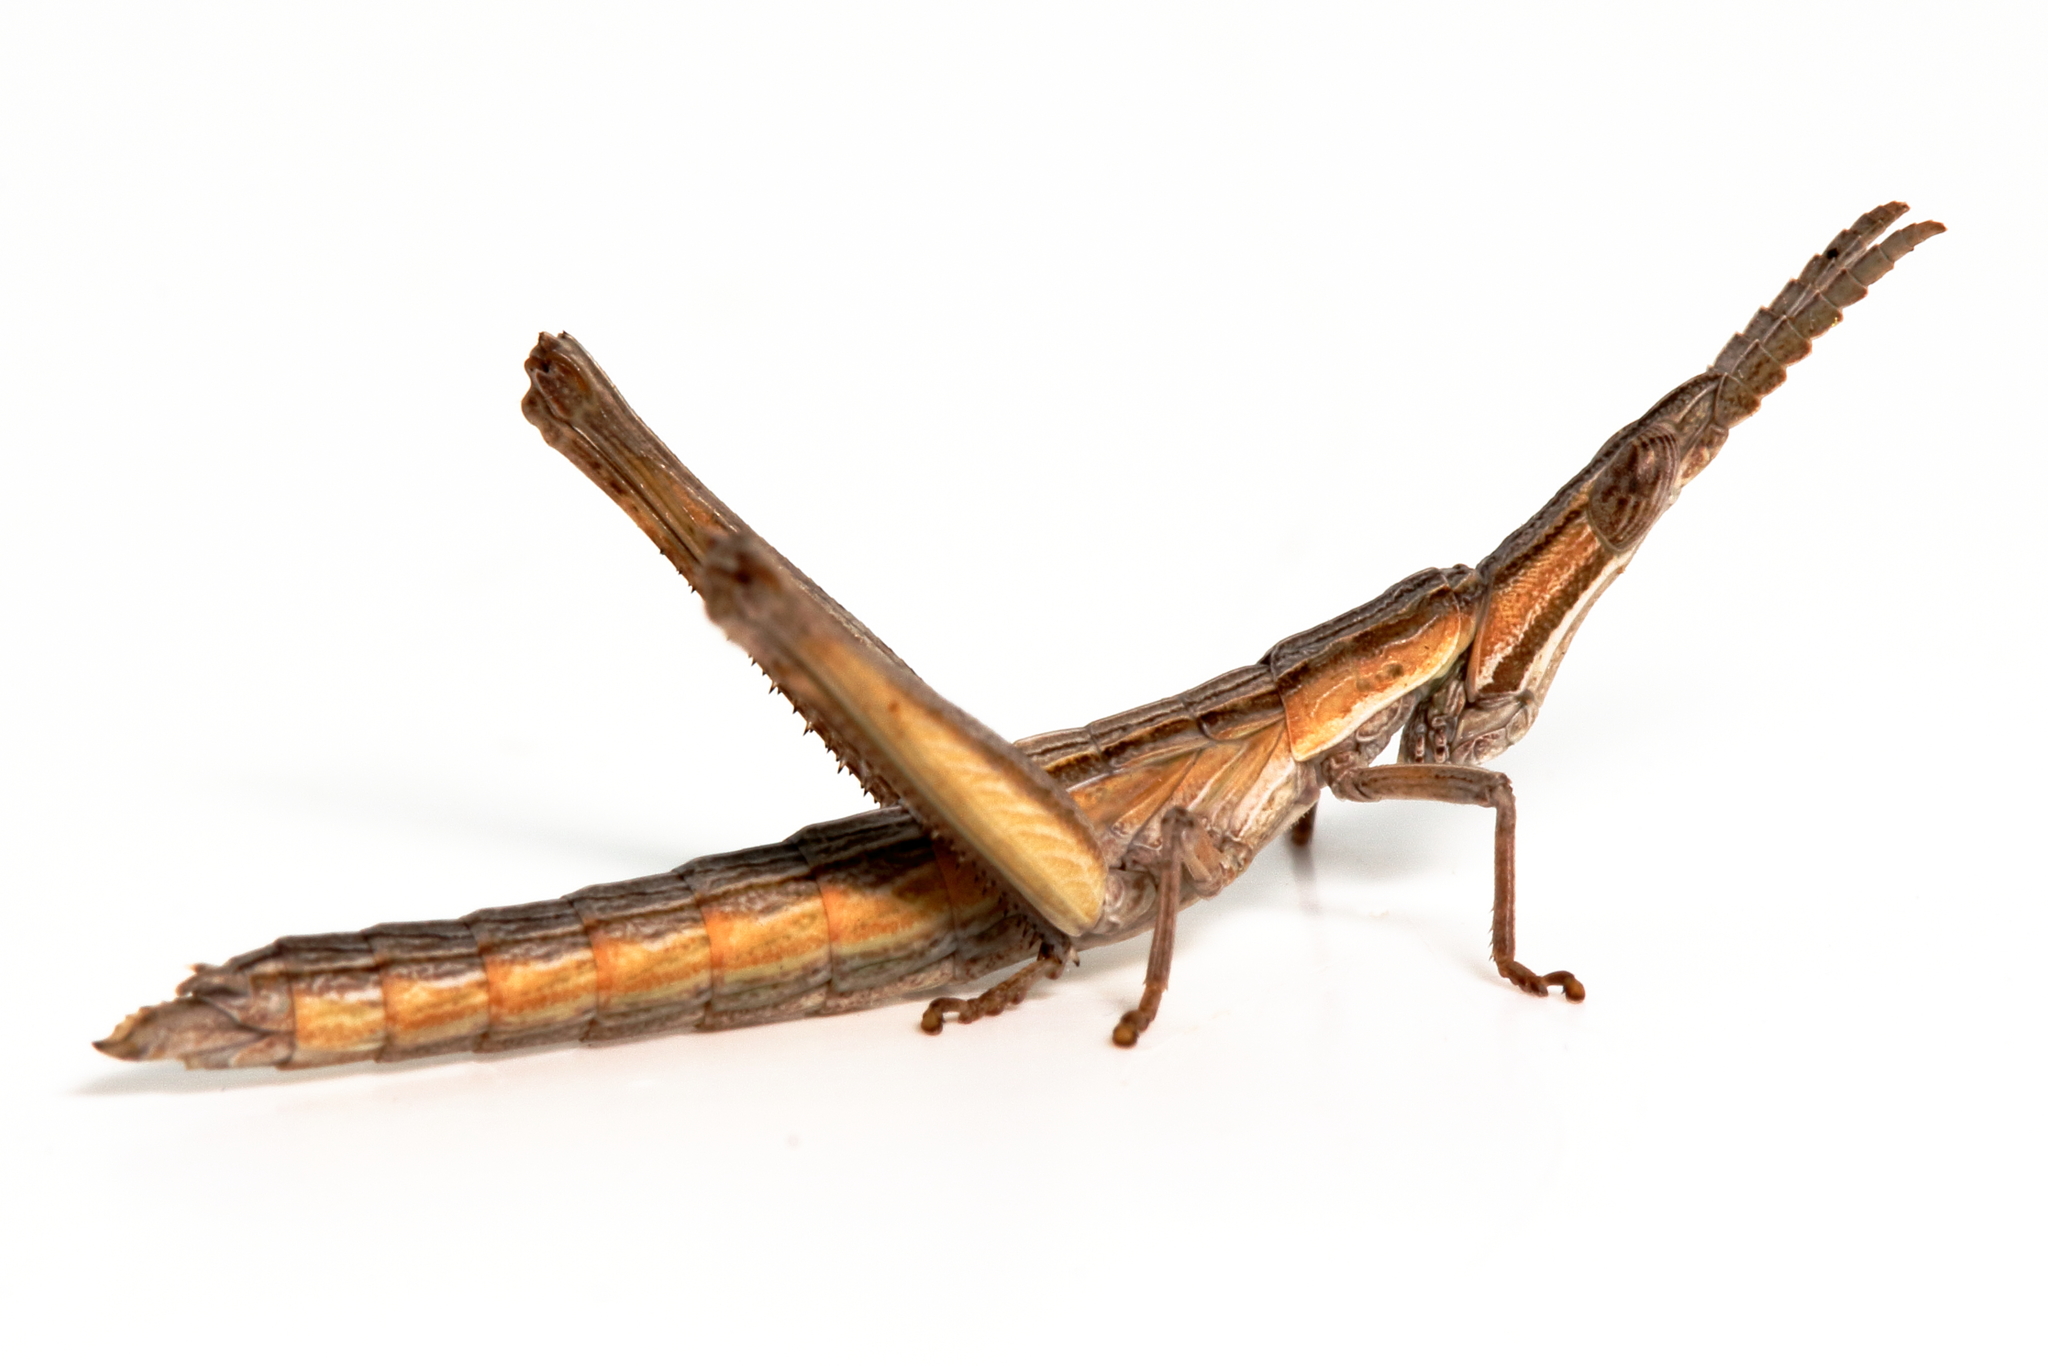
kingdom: Animalia
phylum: Arthropoda
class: Insecta
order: Orthoptera
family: Morabidae
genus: Vandiemenella
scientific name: Vandiemenella viatica
